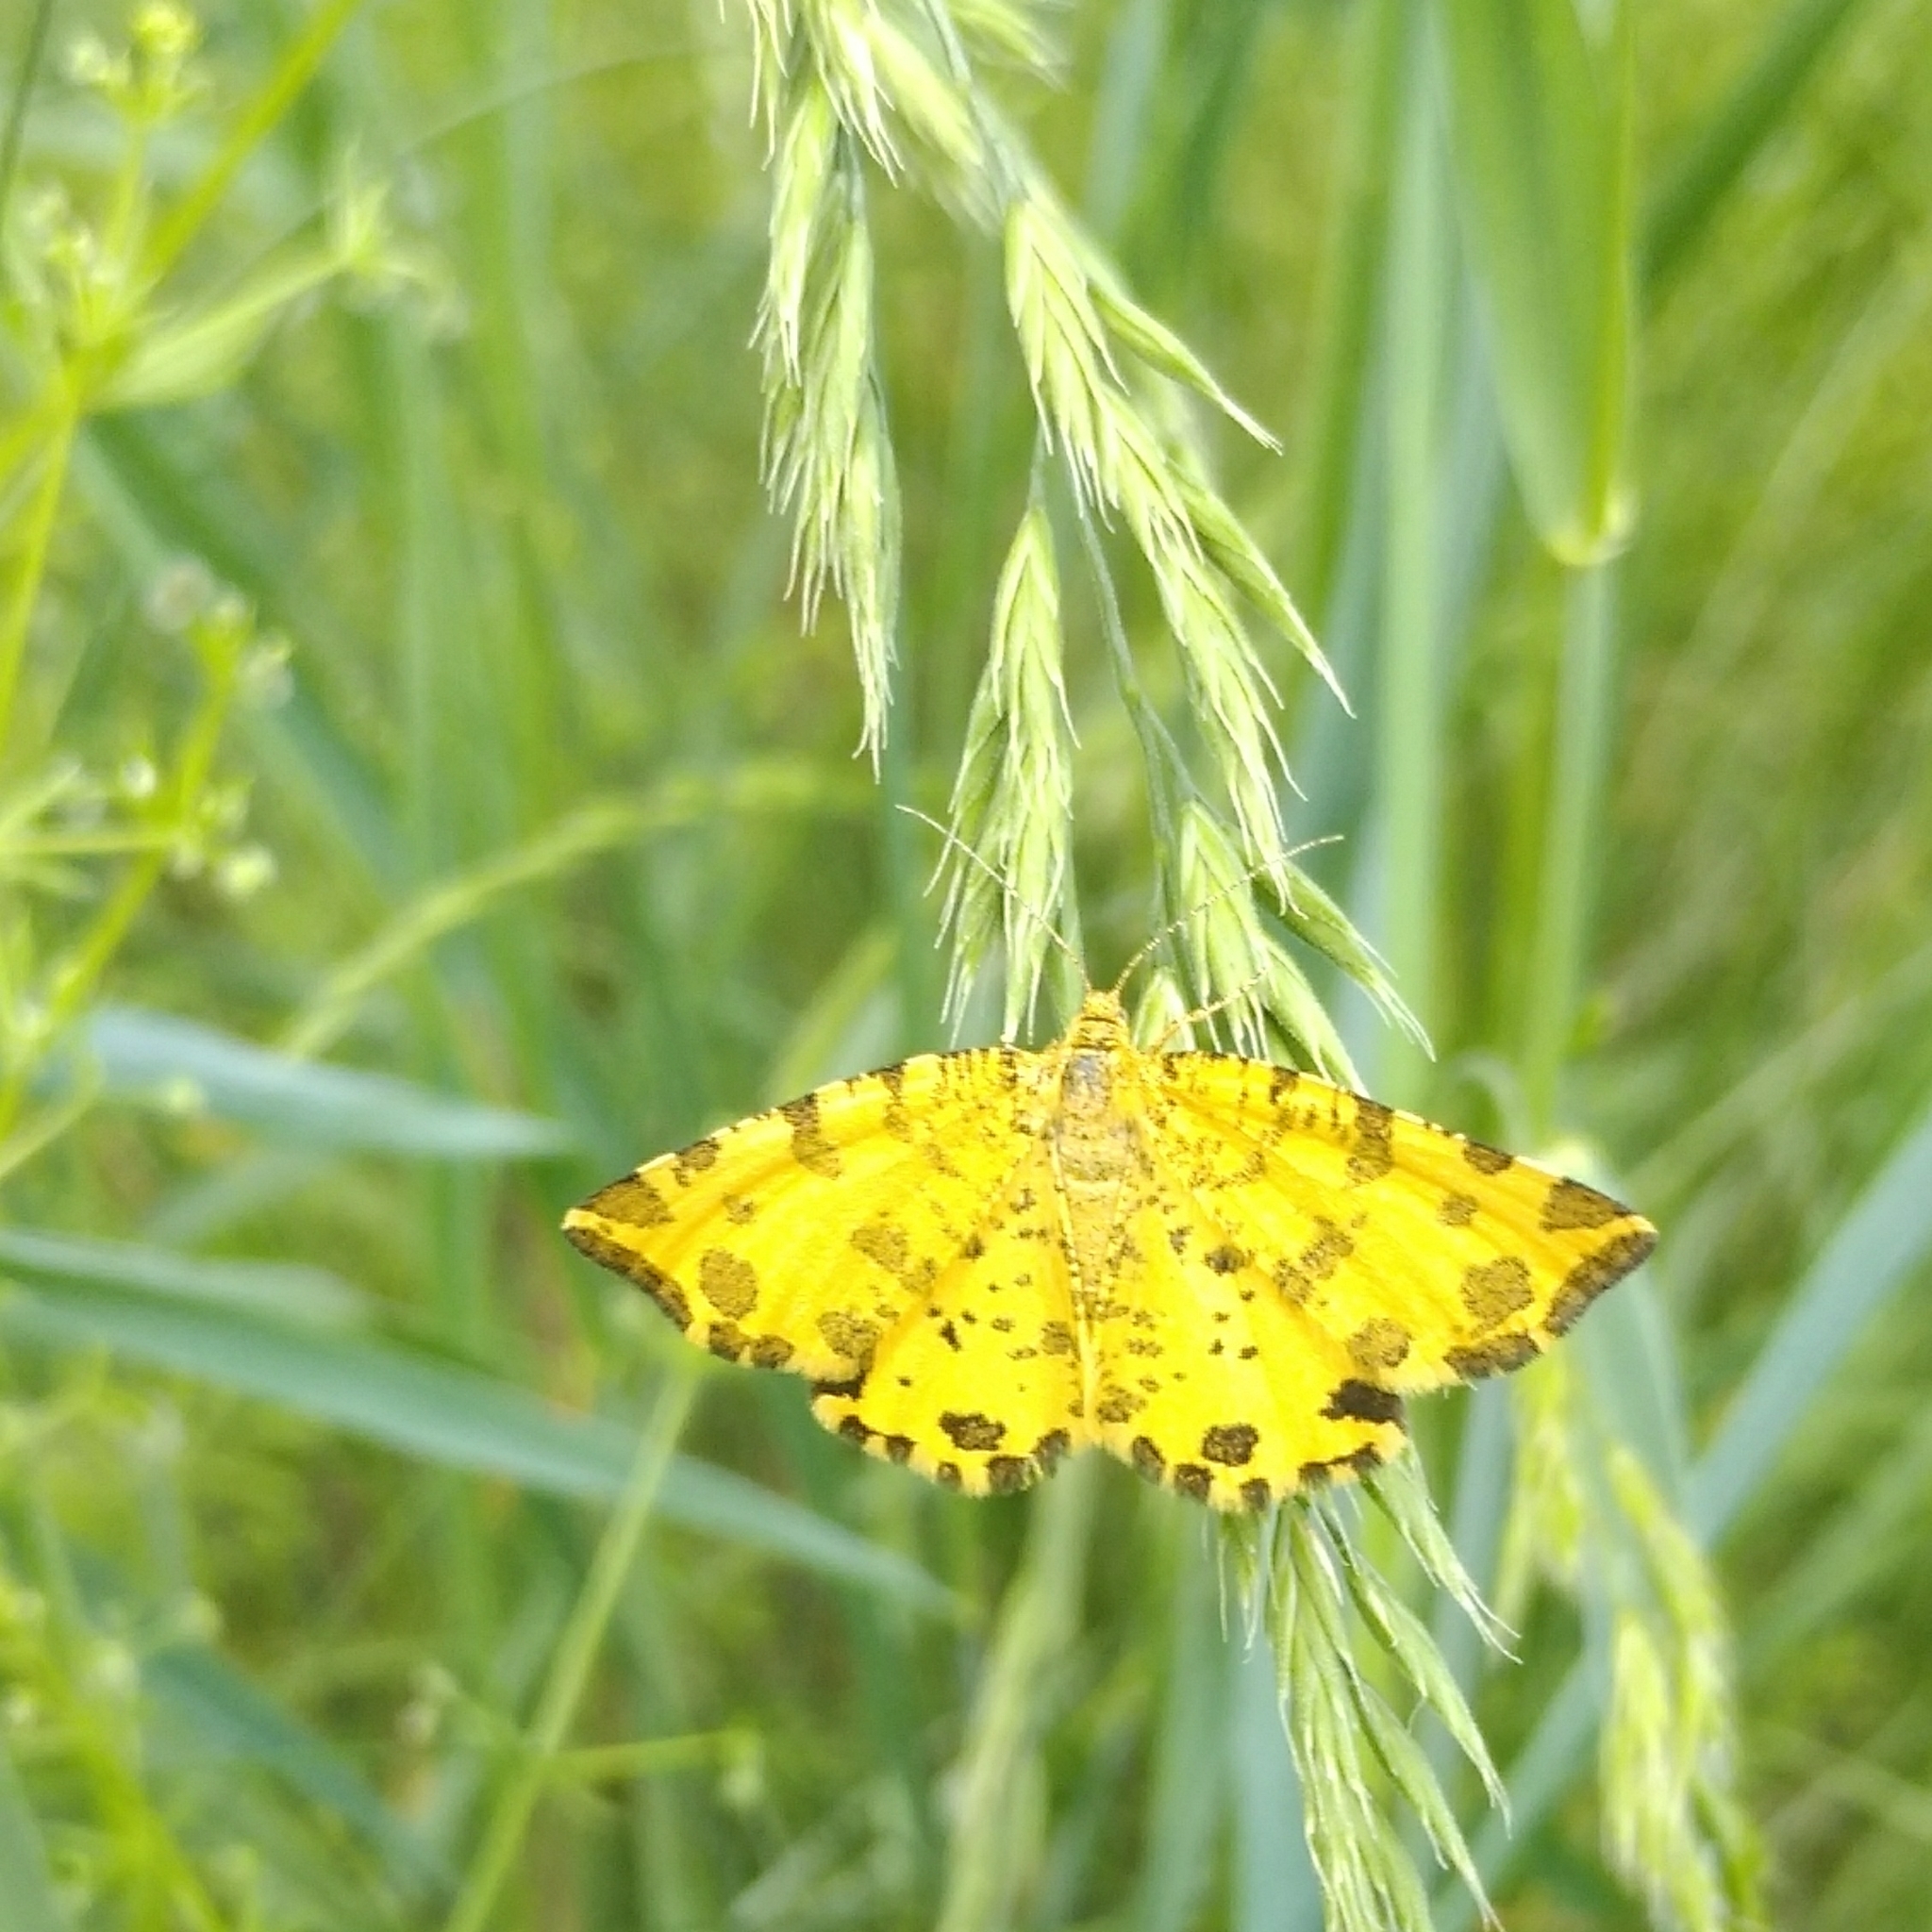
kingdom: Animalia
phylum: Arthropoda
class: Insecta
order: Lepidoptera
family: Geometridae
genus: Pseudopanthera
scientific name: Pseudopanthera macularia
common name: Speckled yellow
